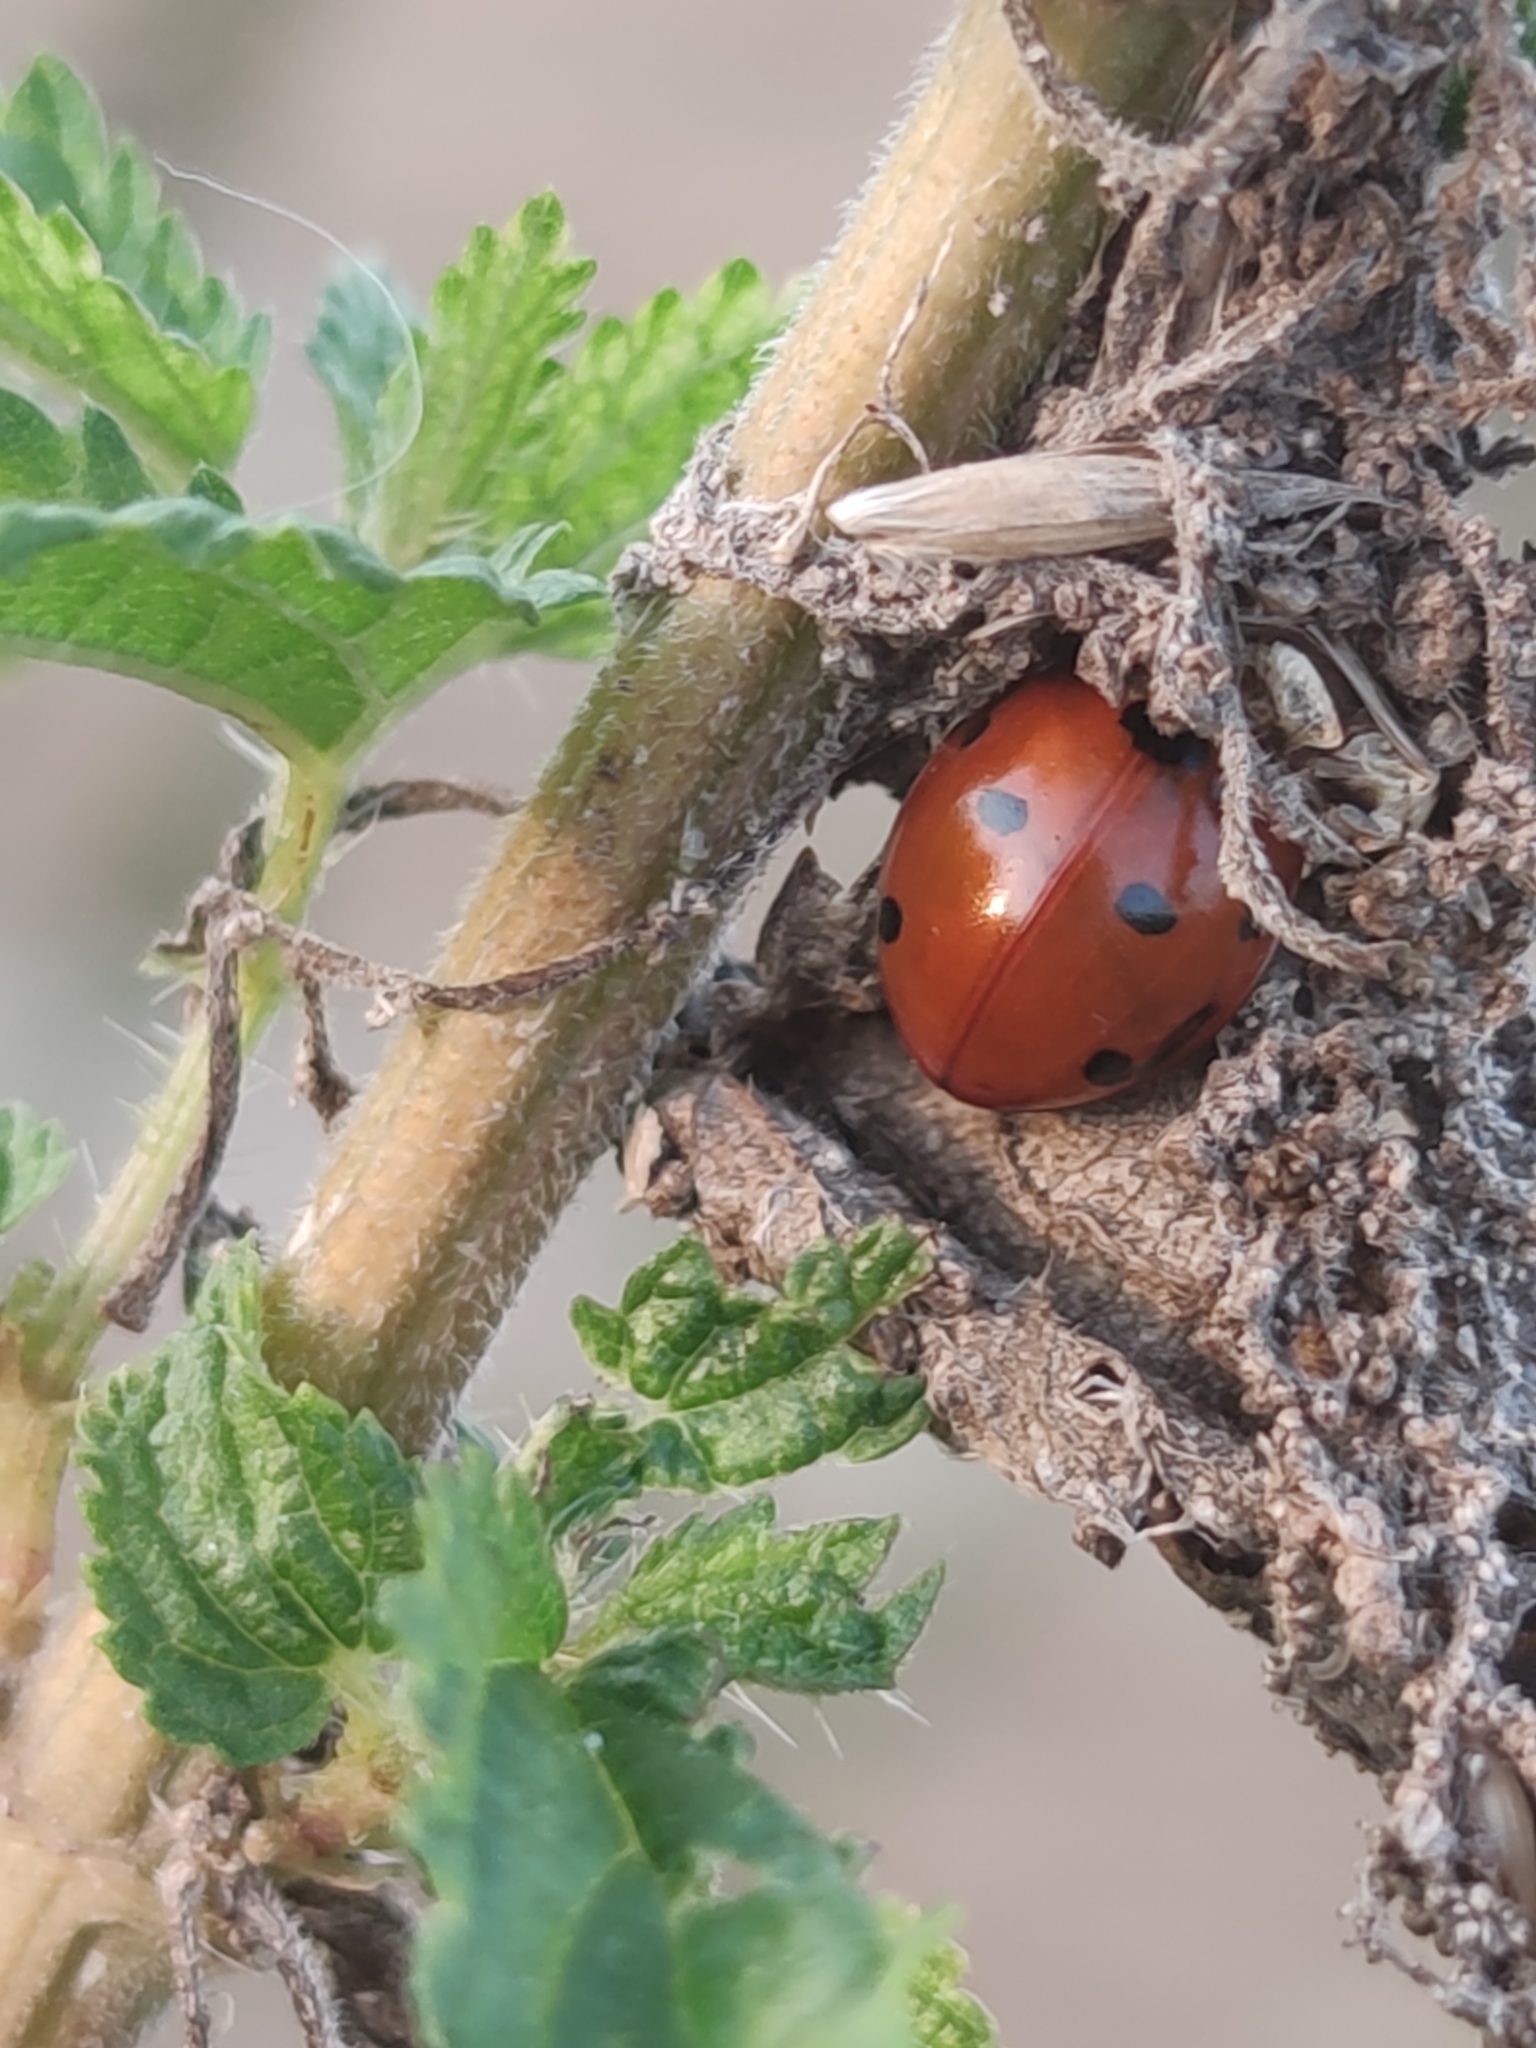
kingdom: Animalia
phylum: Arthropoda
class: Insecta
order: Coleoptera
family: Coccinellidae
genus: Coccinella
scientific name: Coccinella septempunctata
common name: Sevenspotted lady beetle
